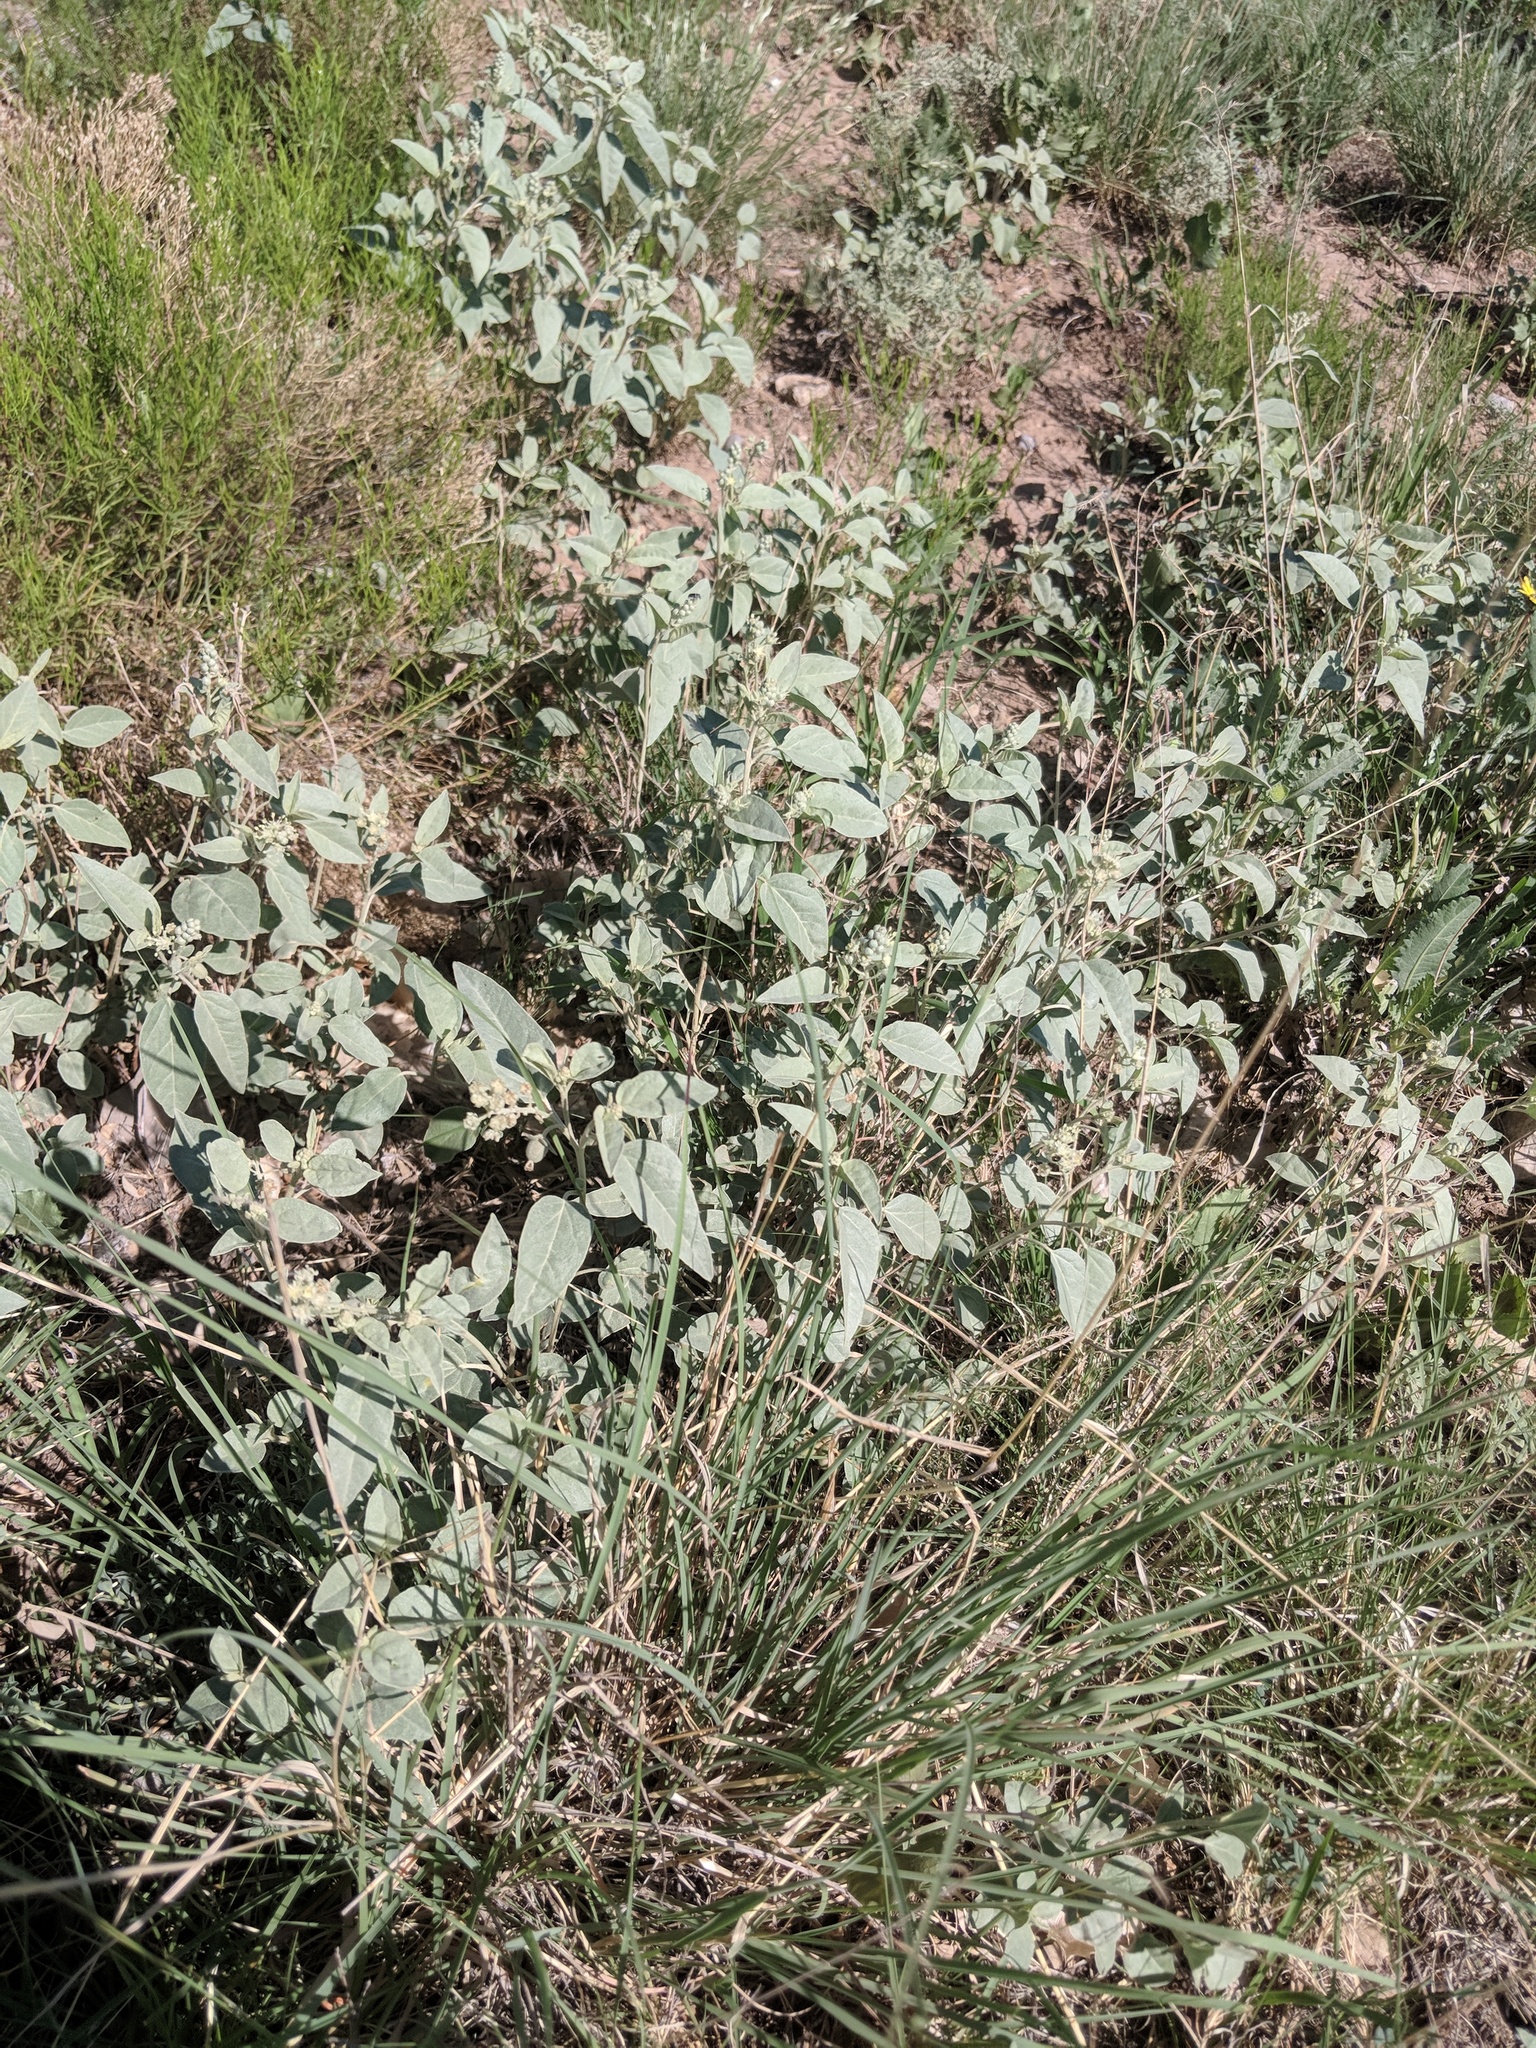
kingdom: Plantae
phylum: Tracheophyta
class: Magnoliopsida
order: Malpighiales
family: Euphorbiaceae
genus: Croton
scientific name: Croton pottsii
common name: Leatherweed
